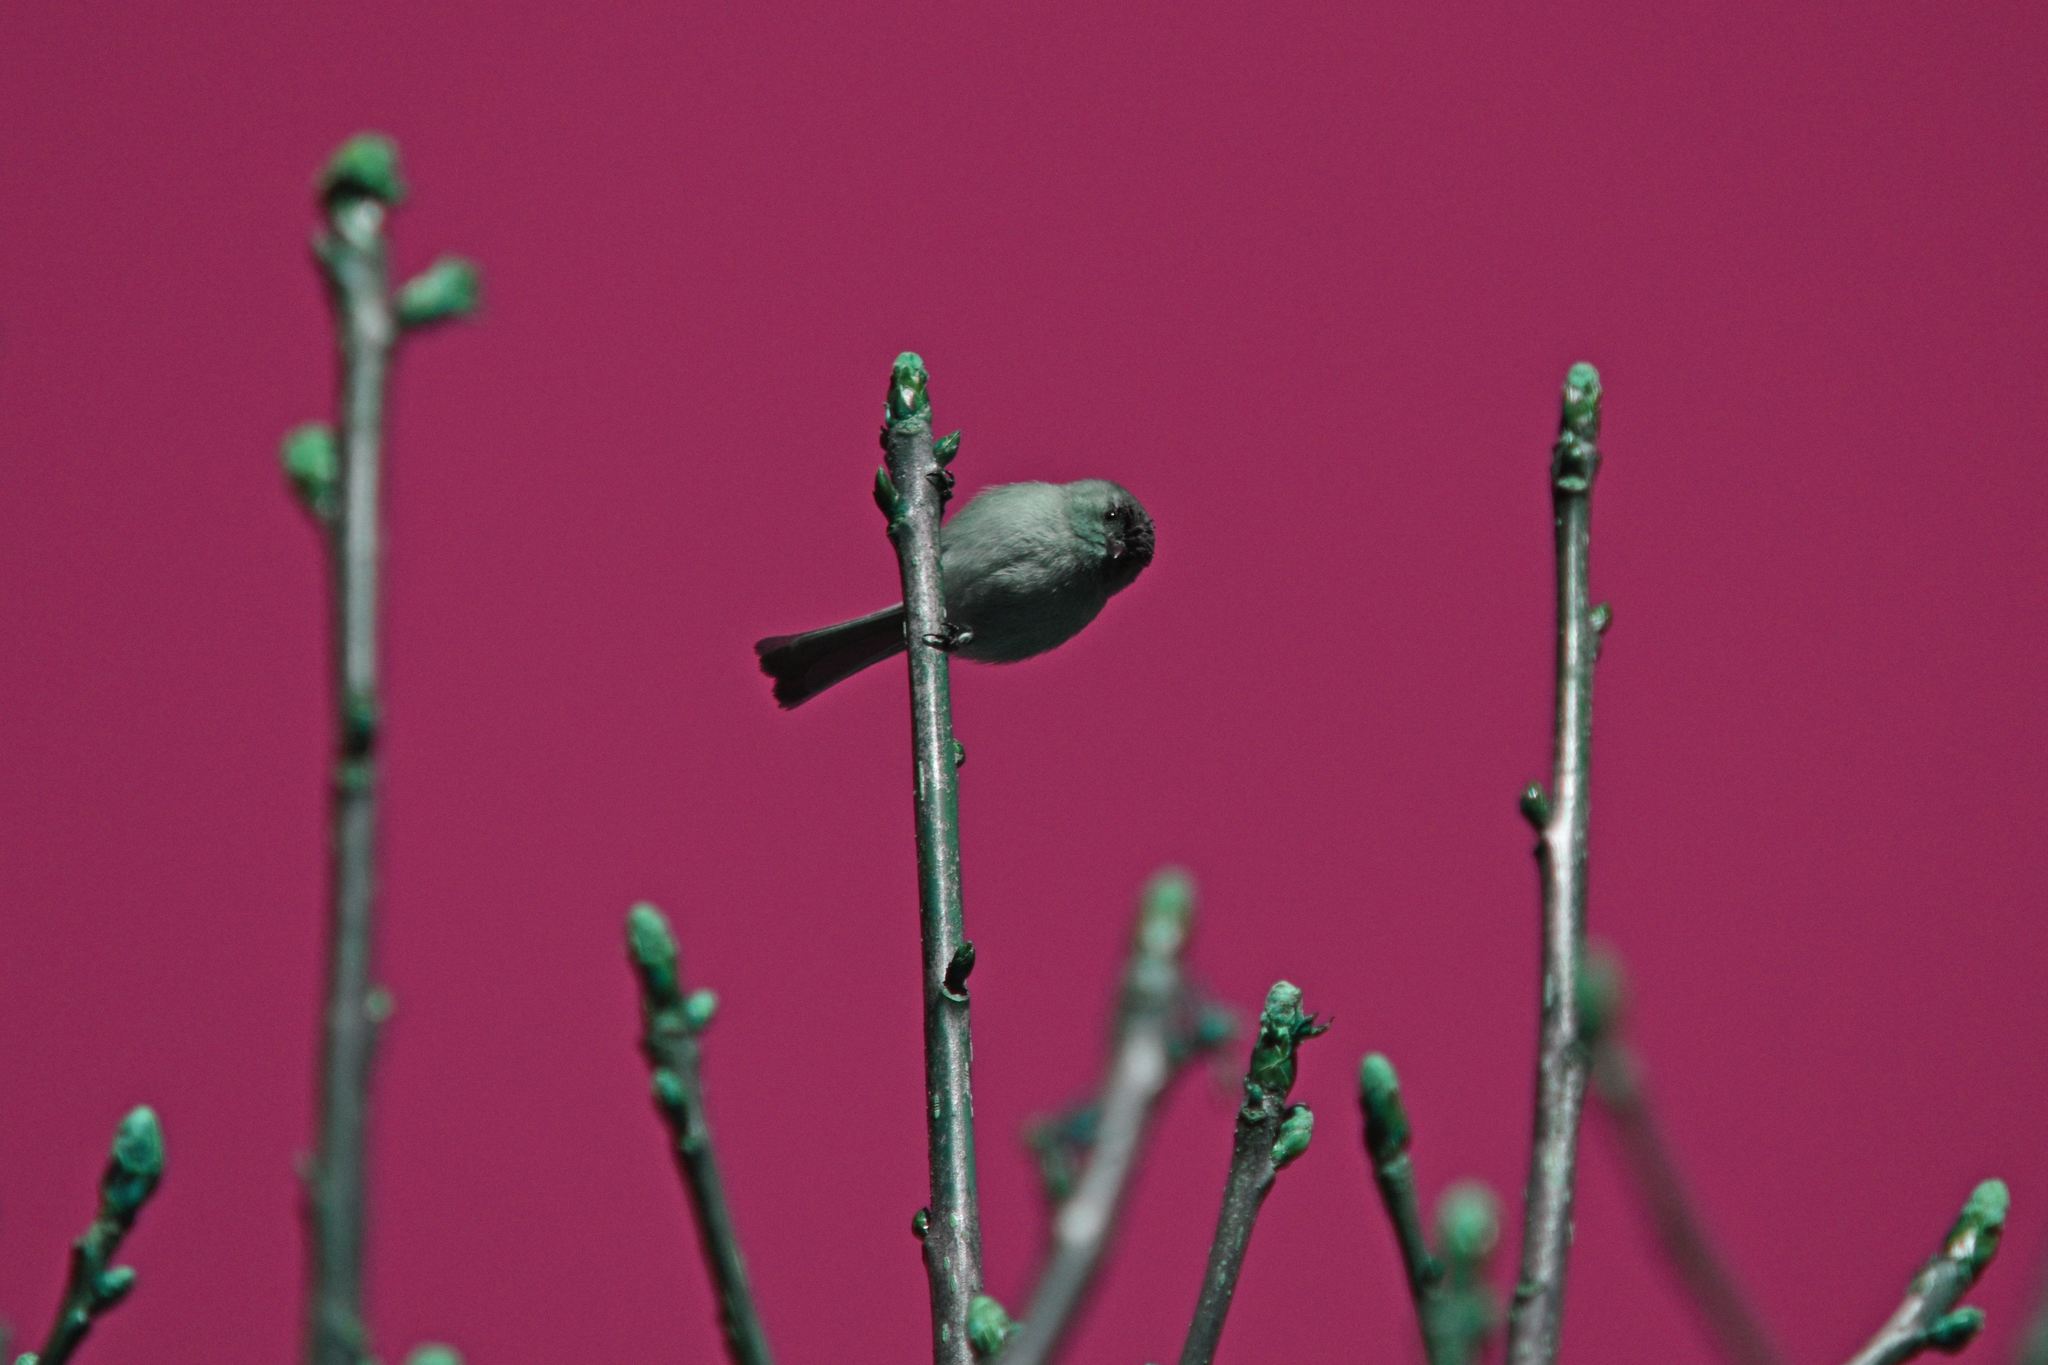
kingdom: Animalia
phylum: Chordata
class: Aves
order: Passeriformes
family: Aegithalidae
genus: Psaltriparus
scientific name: Psaltriparus minimus
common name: American bushtit
